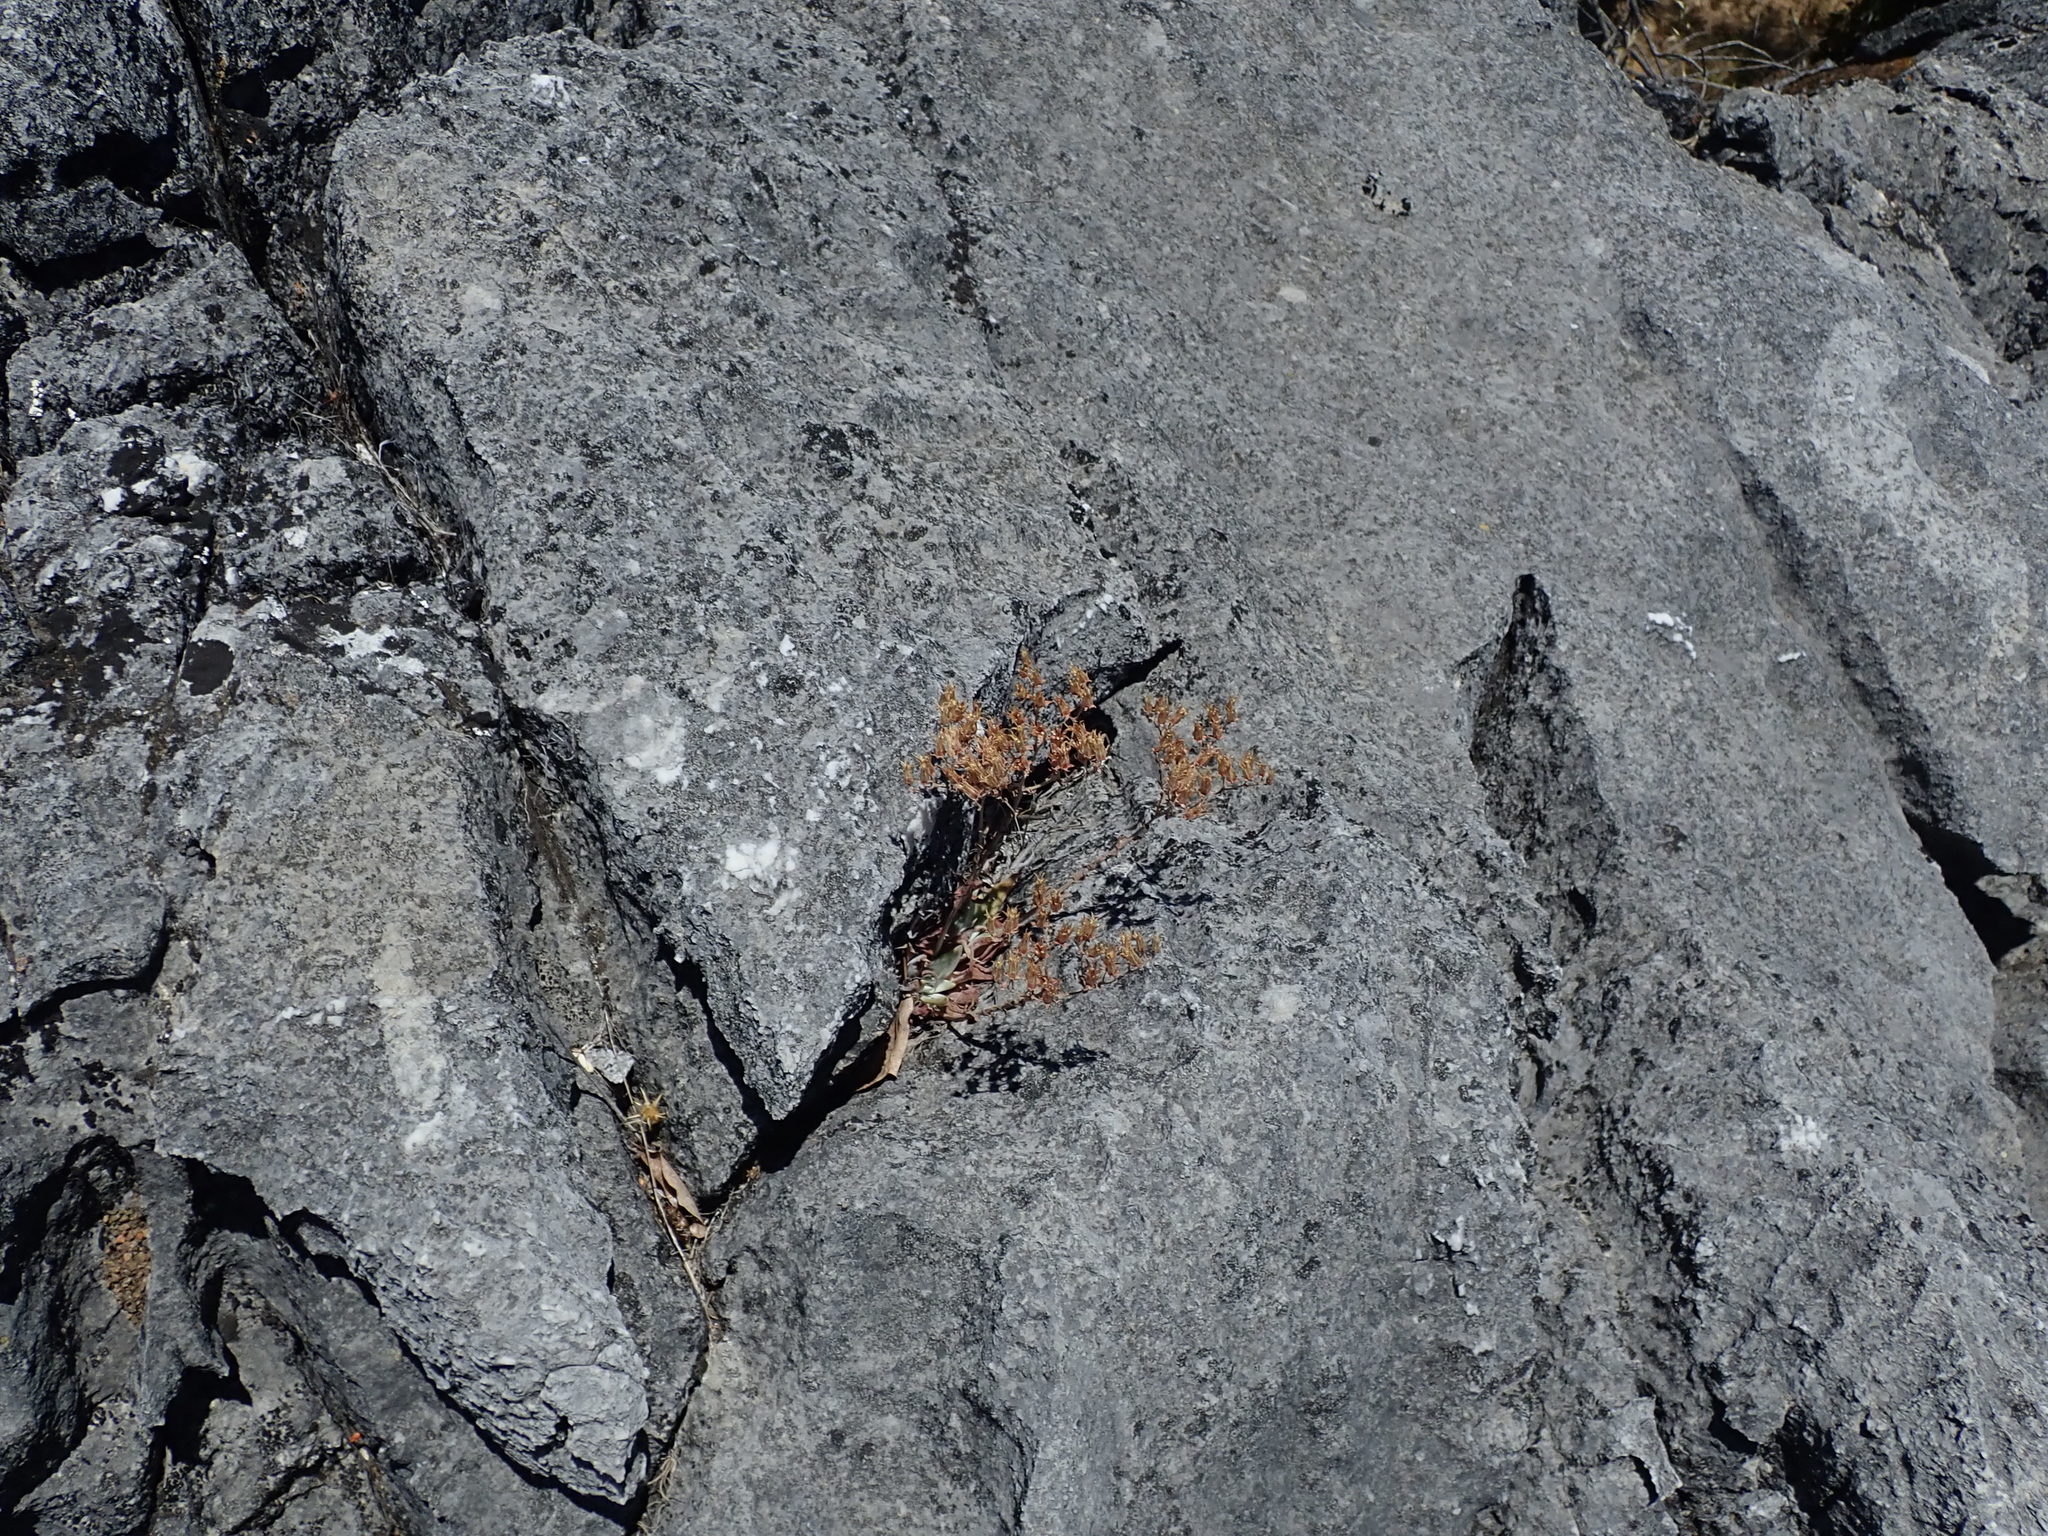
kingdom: Plantae
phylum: Tracheophyta
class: Magnoliopsida
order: Saxifragales
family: Crassulaceae
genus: Dudleya
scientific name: Dudleya abramsii
